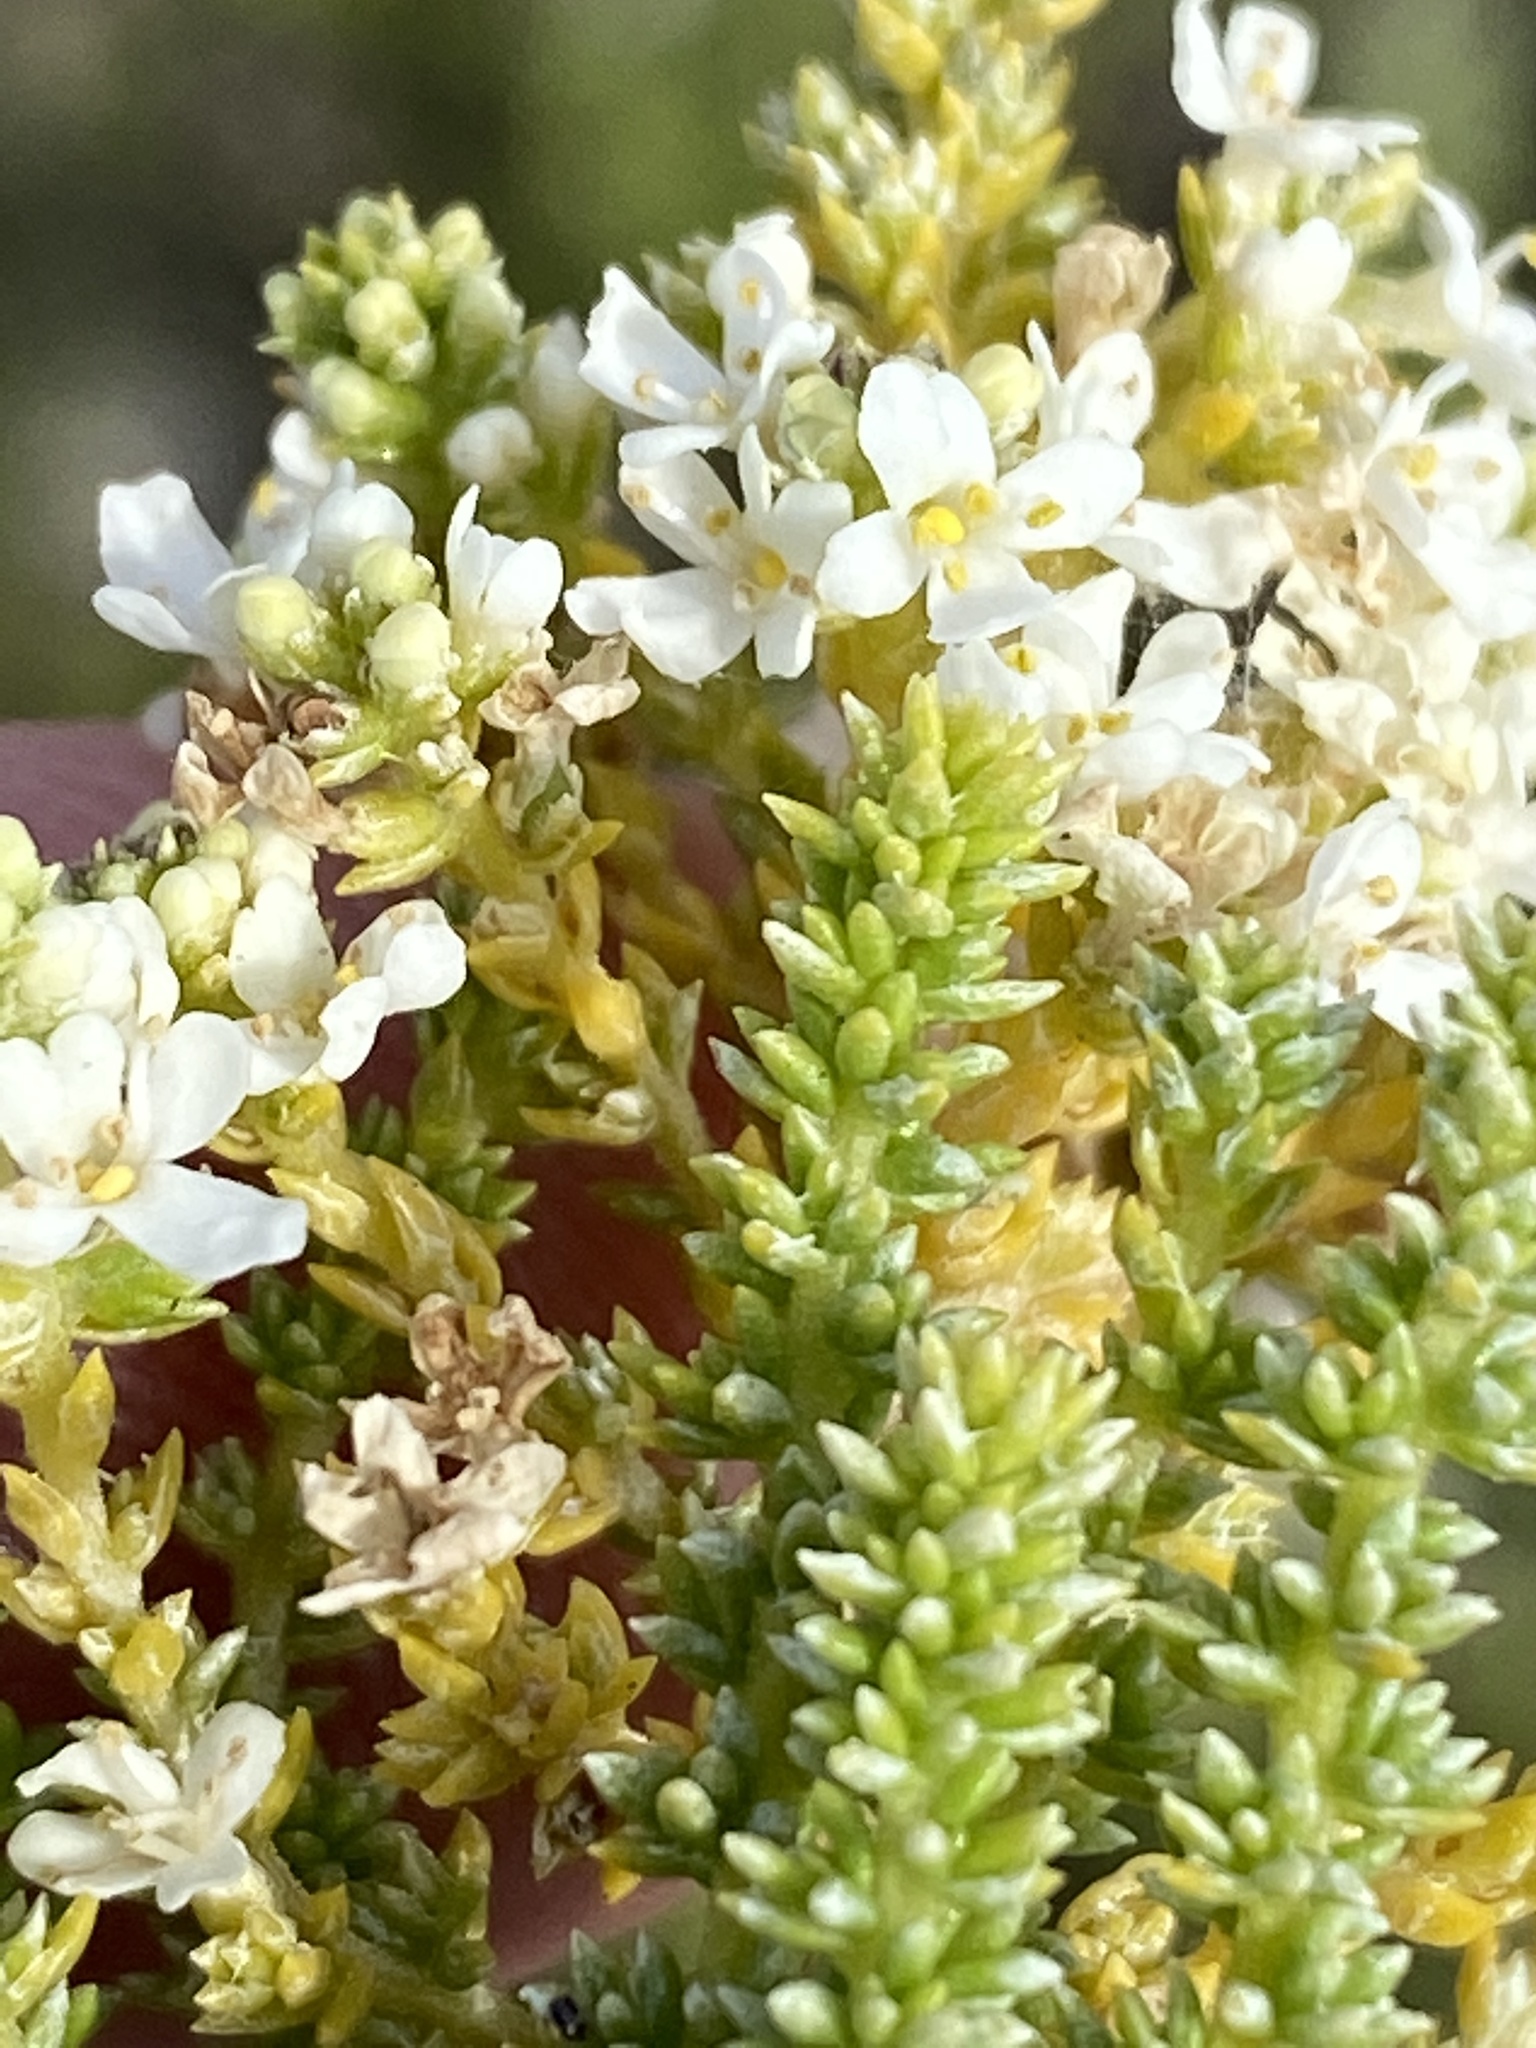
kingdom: Plantae
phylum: Tracheophyta
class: Magnoliopsida
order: Lamiales
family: Scrophulariaceae
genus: Selago
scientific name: Selago myriophylla
